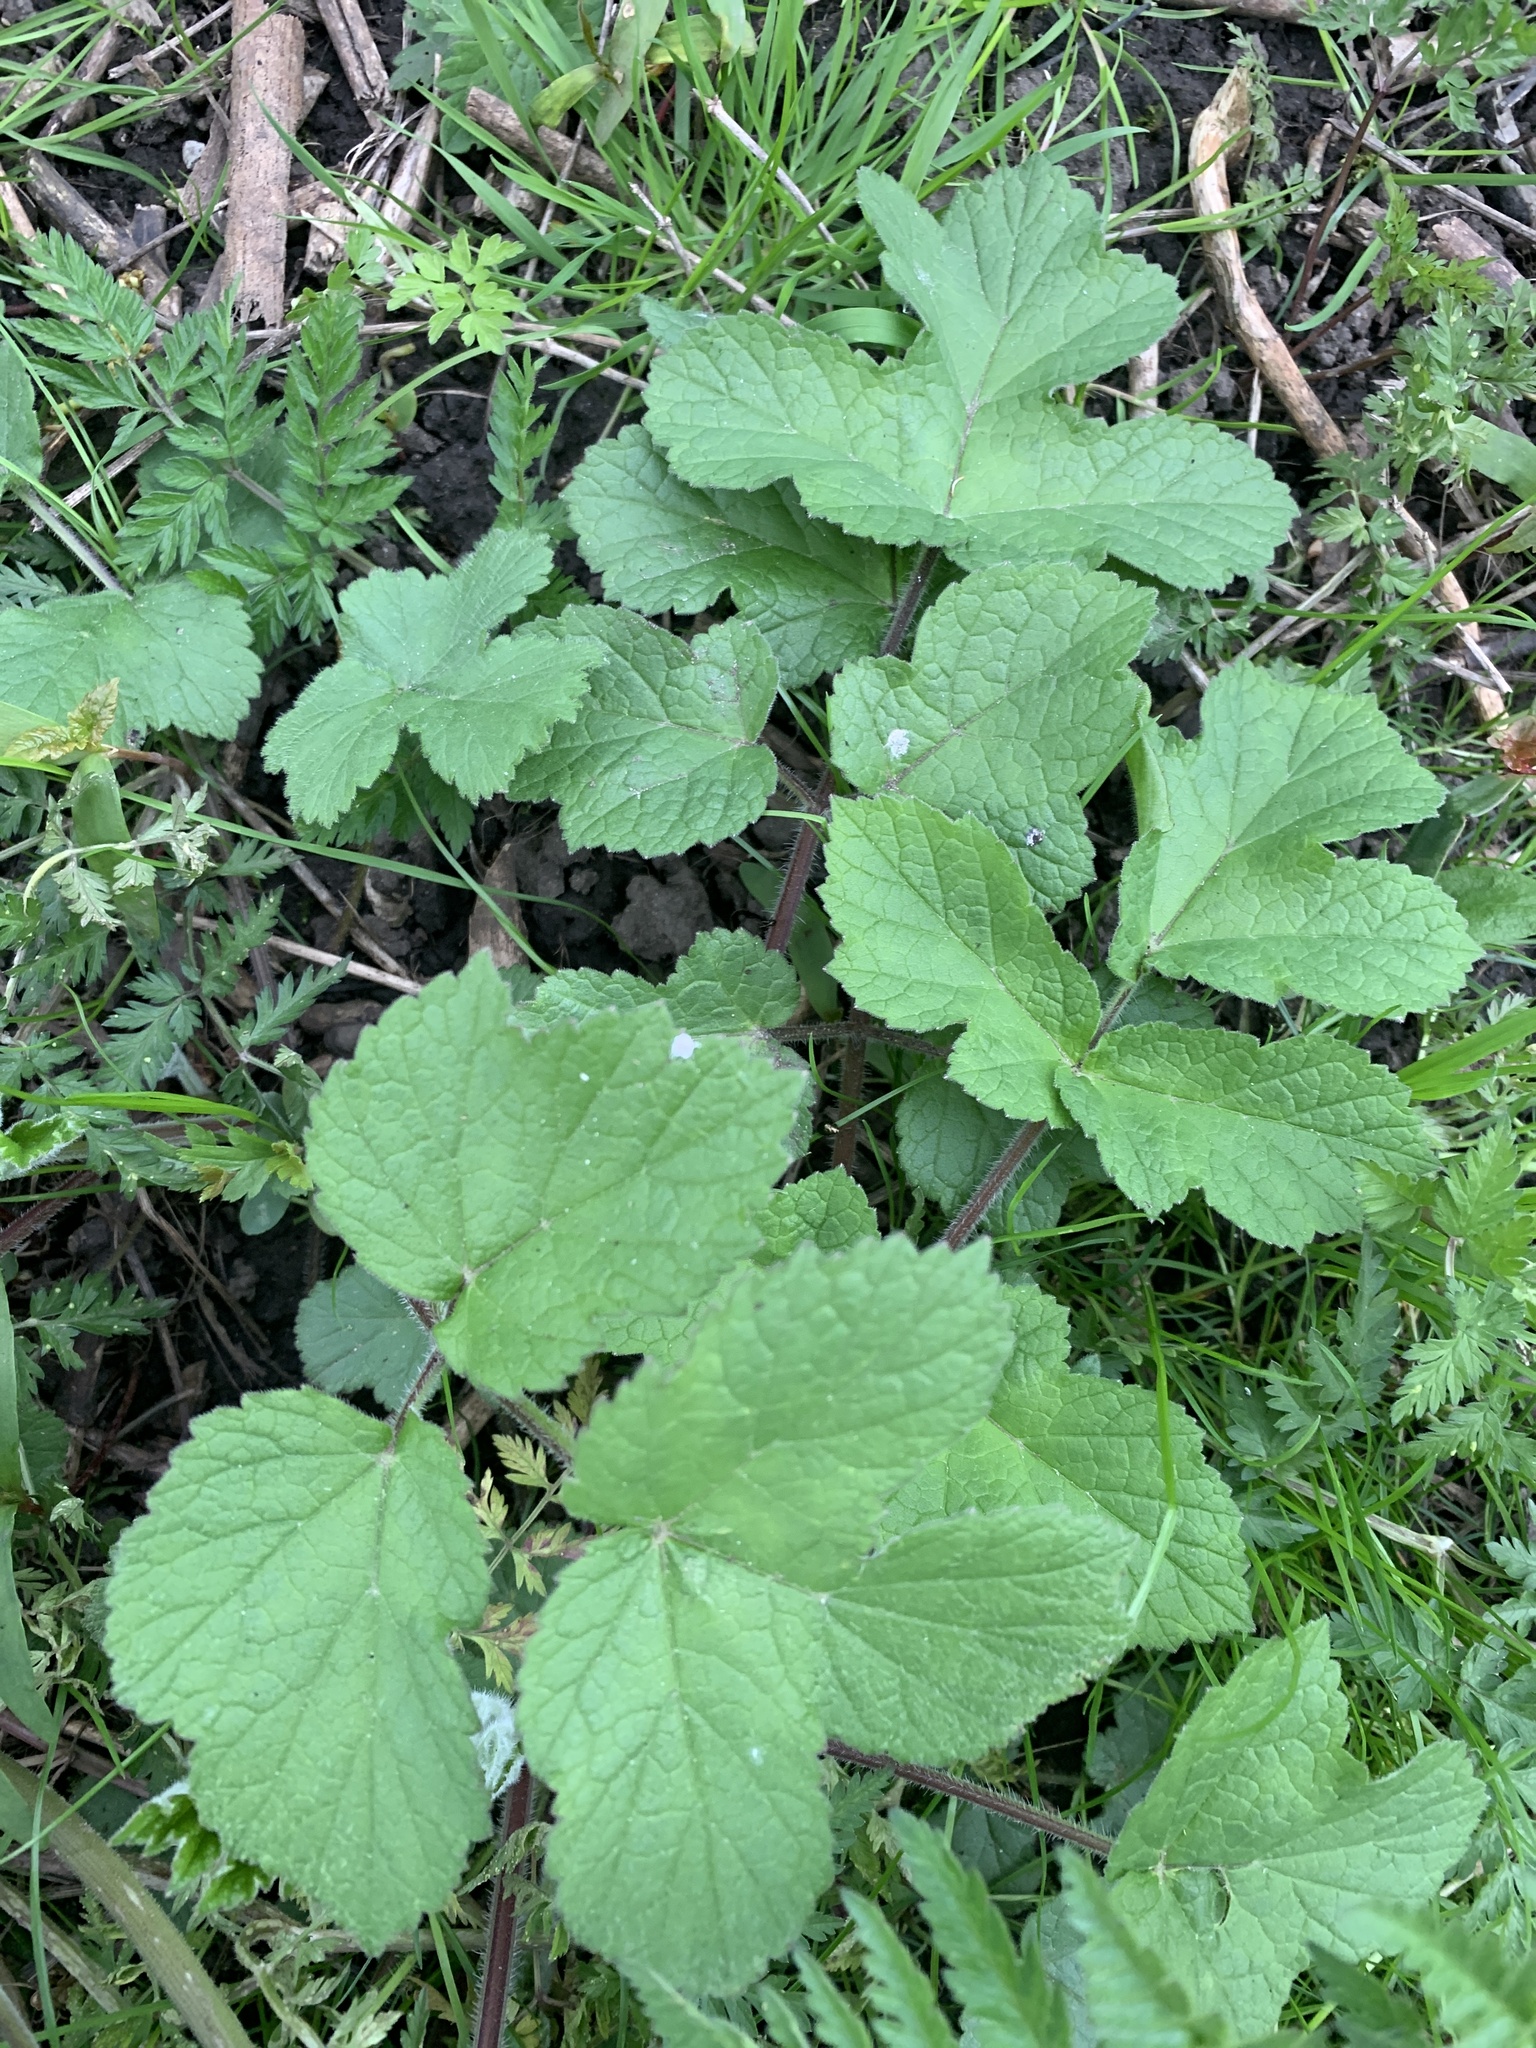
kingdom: Plantae
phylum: Tracheophyta
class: Magnoliopsida
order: Apiales
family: Apiaceae
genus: Heracleum
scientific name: Heracleum sphondylium
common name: Hogweed
